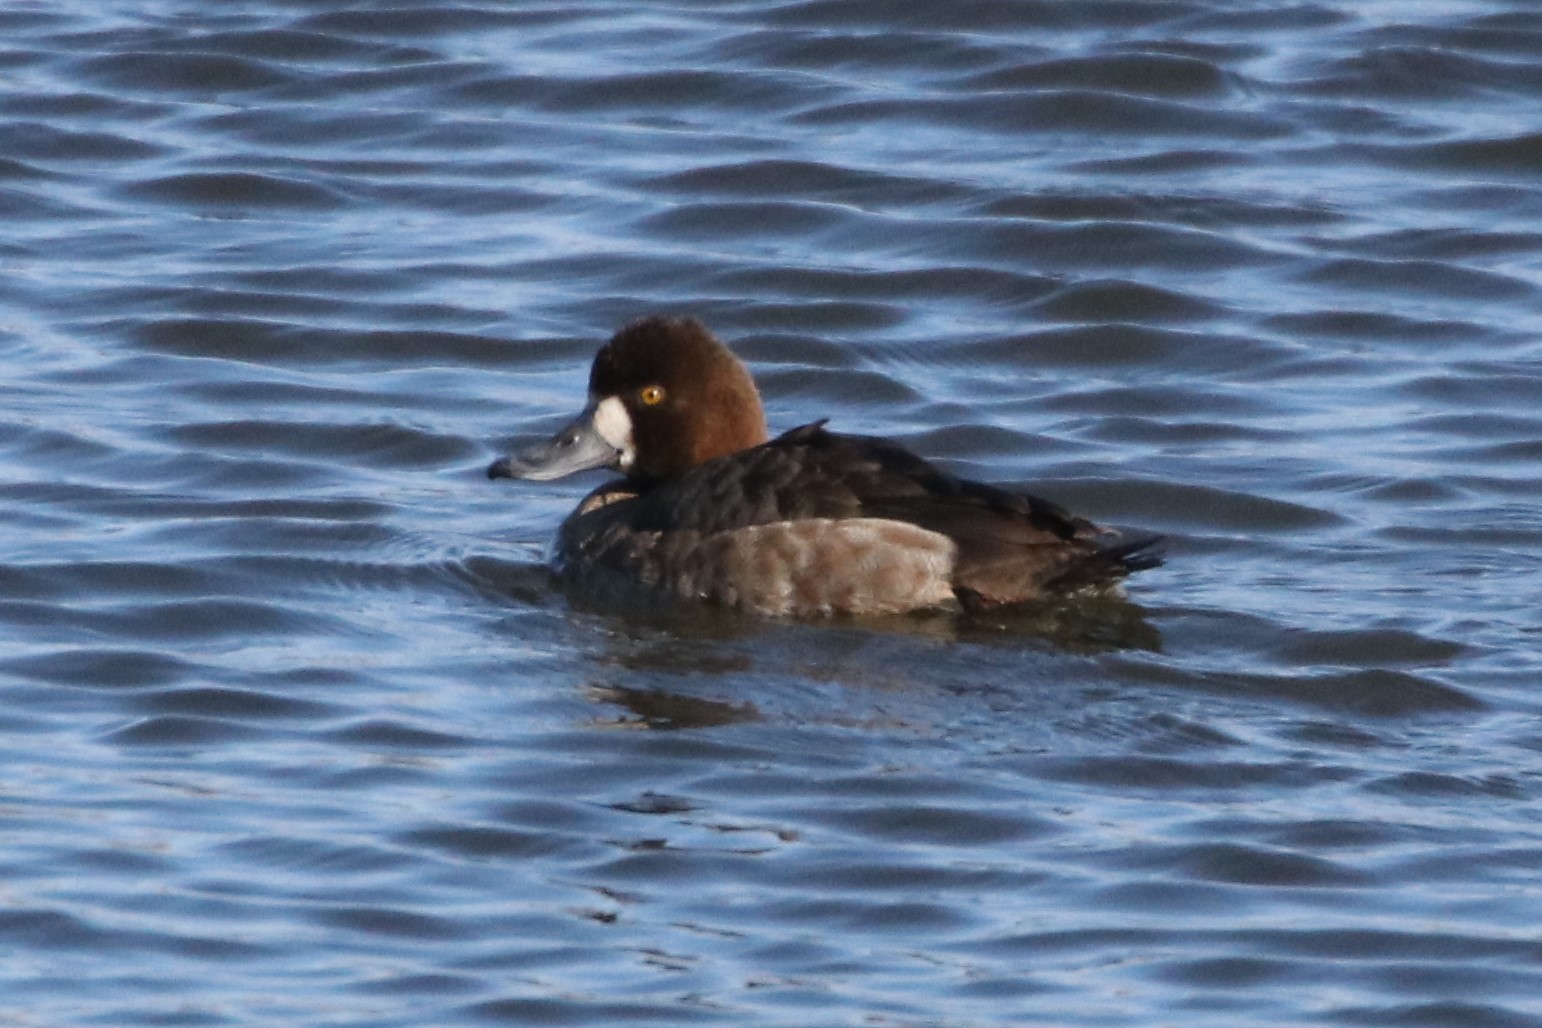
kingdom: Animalia
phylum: Chordata
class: Aves
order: Anseriformes
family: Anatidae
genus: Aythya
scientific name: Aythya affinis
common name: Lesser scaup
